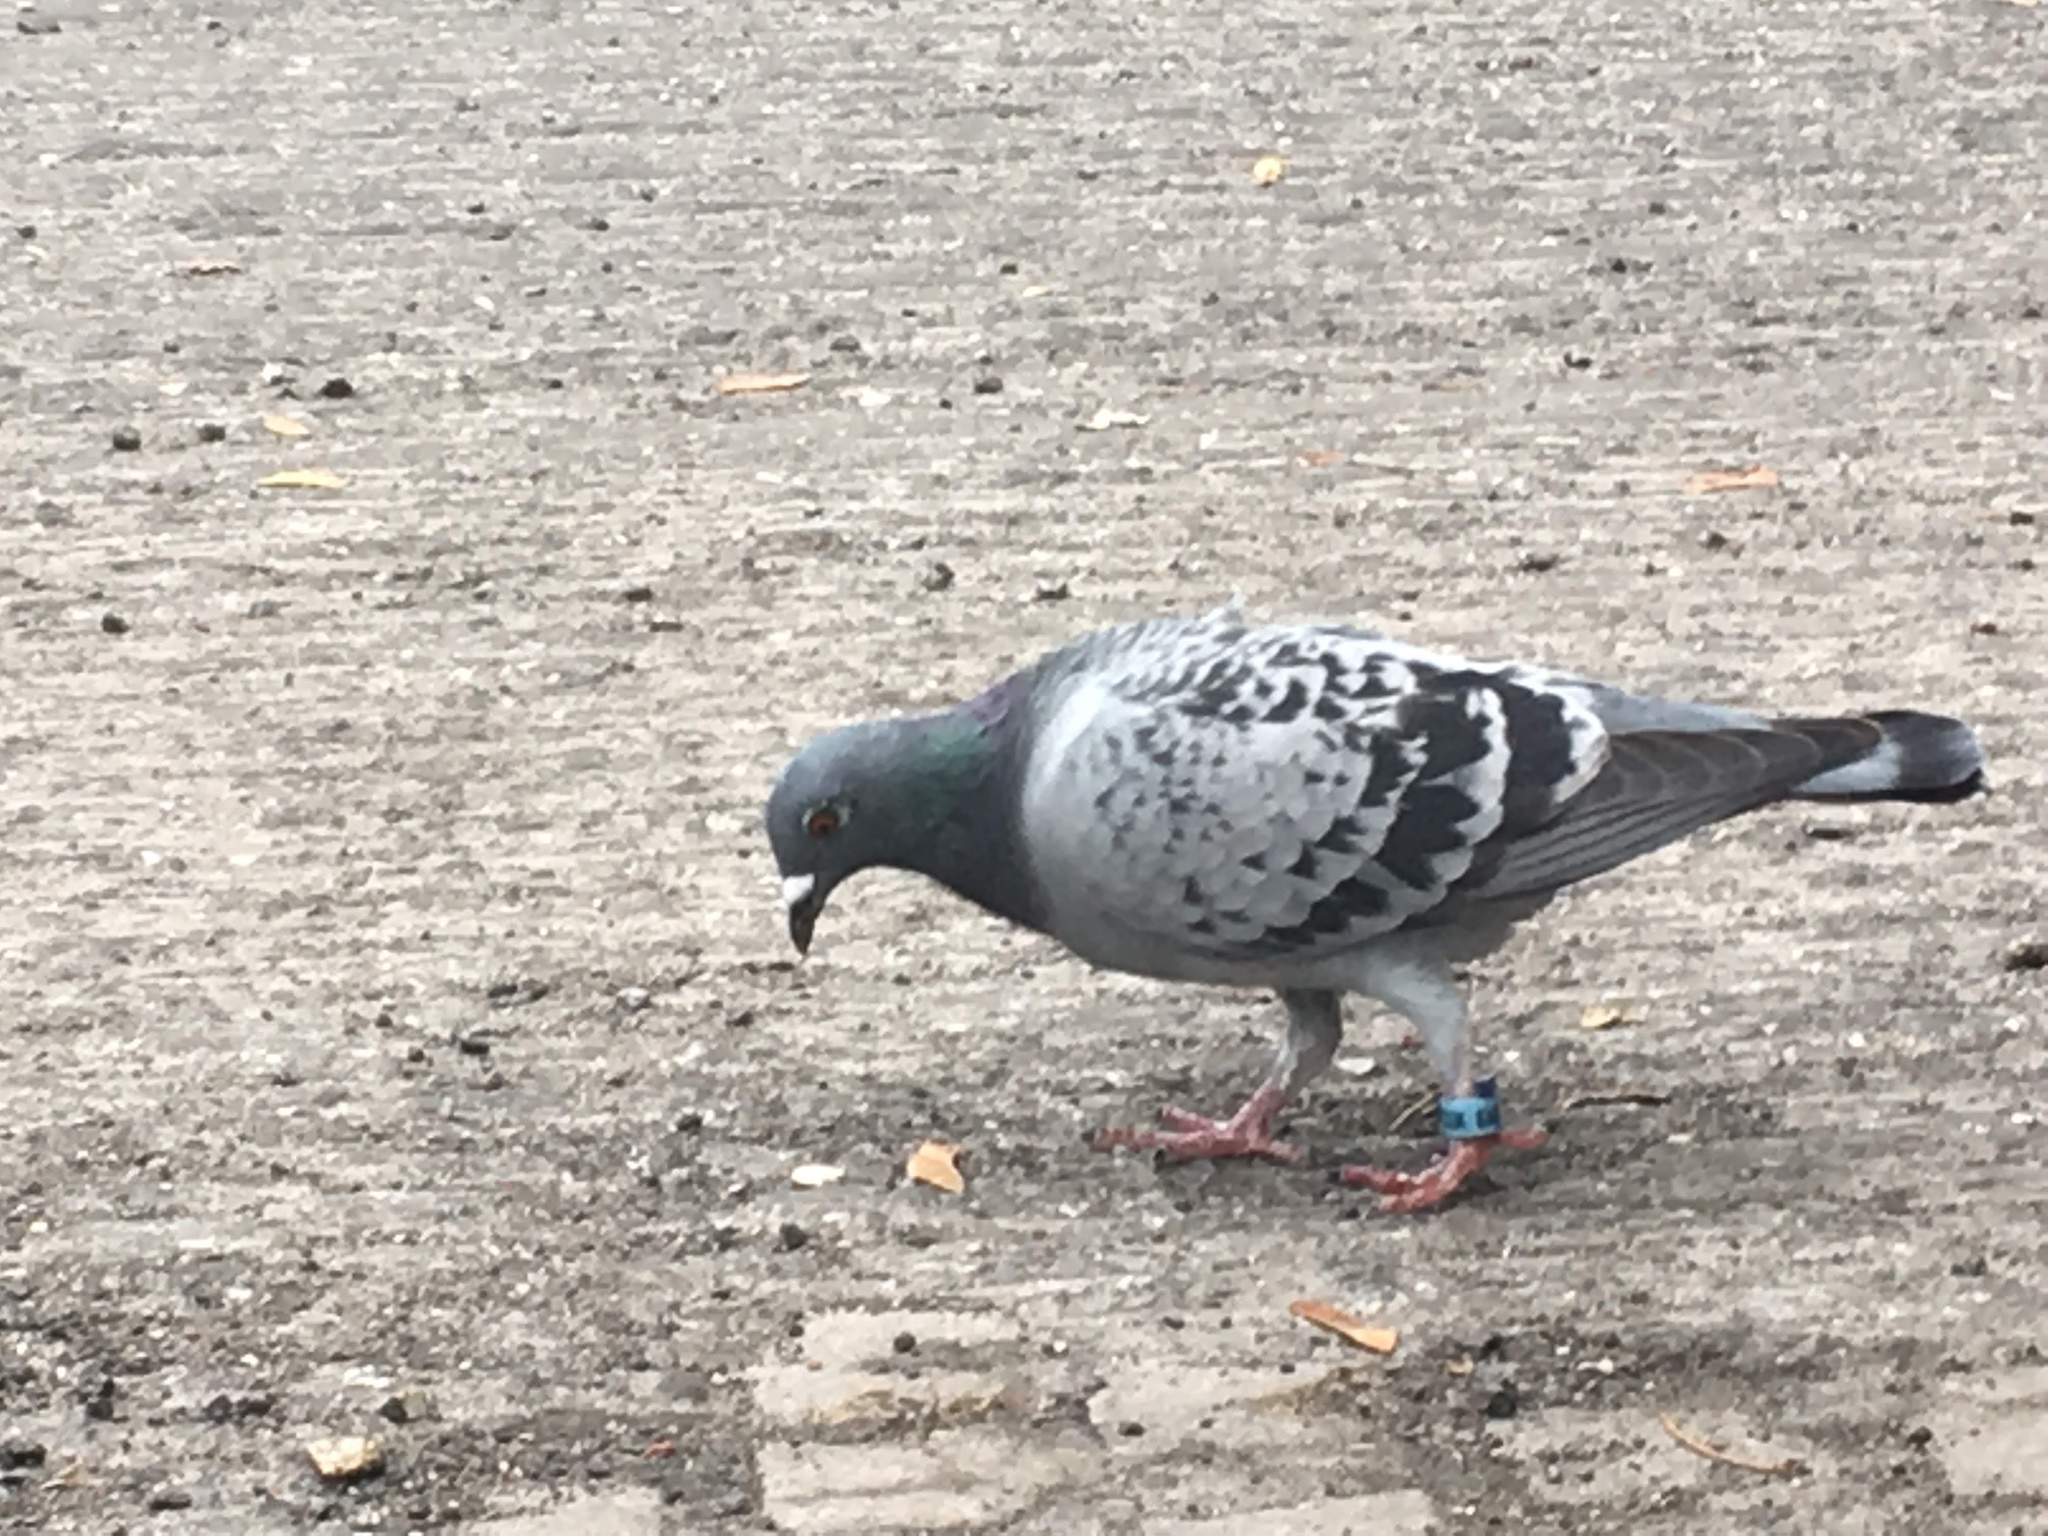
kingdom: Animalia
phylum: Chordata
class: Aves
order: Columbiformes
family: Columbidae
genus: Columba
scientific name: Columba livia
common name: Rock pigeon
